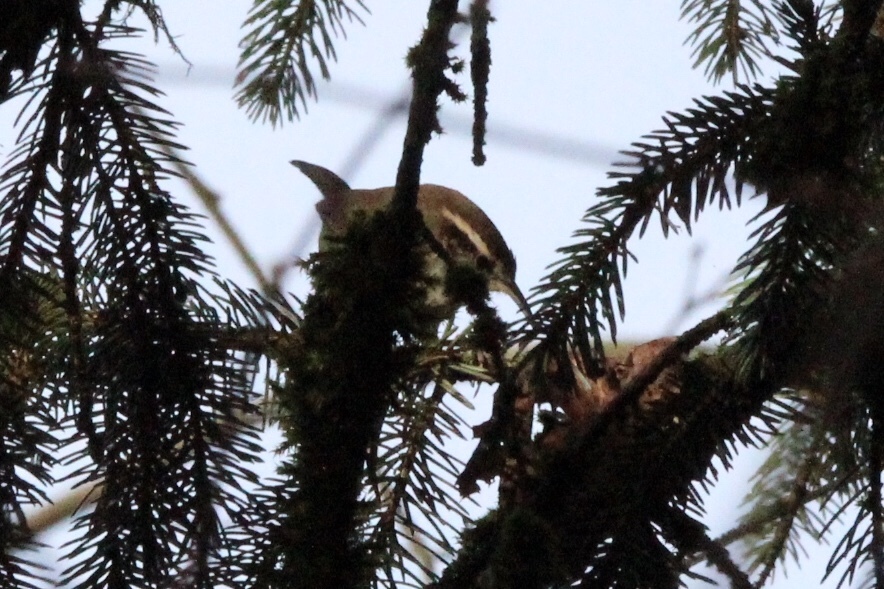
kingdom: Animalia
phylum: Chordata
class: Aves
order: Passeriformes
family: Troglodytidae
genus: Thryomanes
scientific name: Thryomanes bewickii
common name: Bewick's wren
